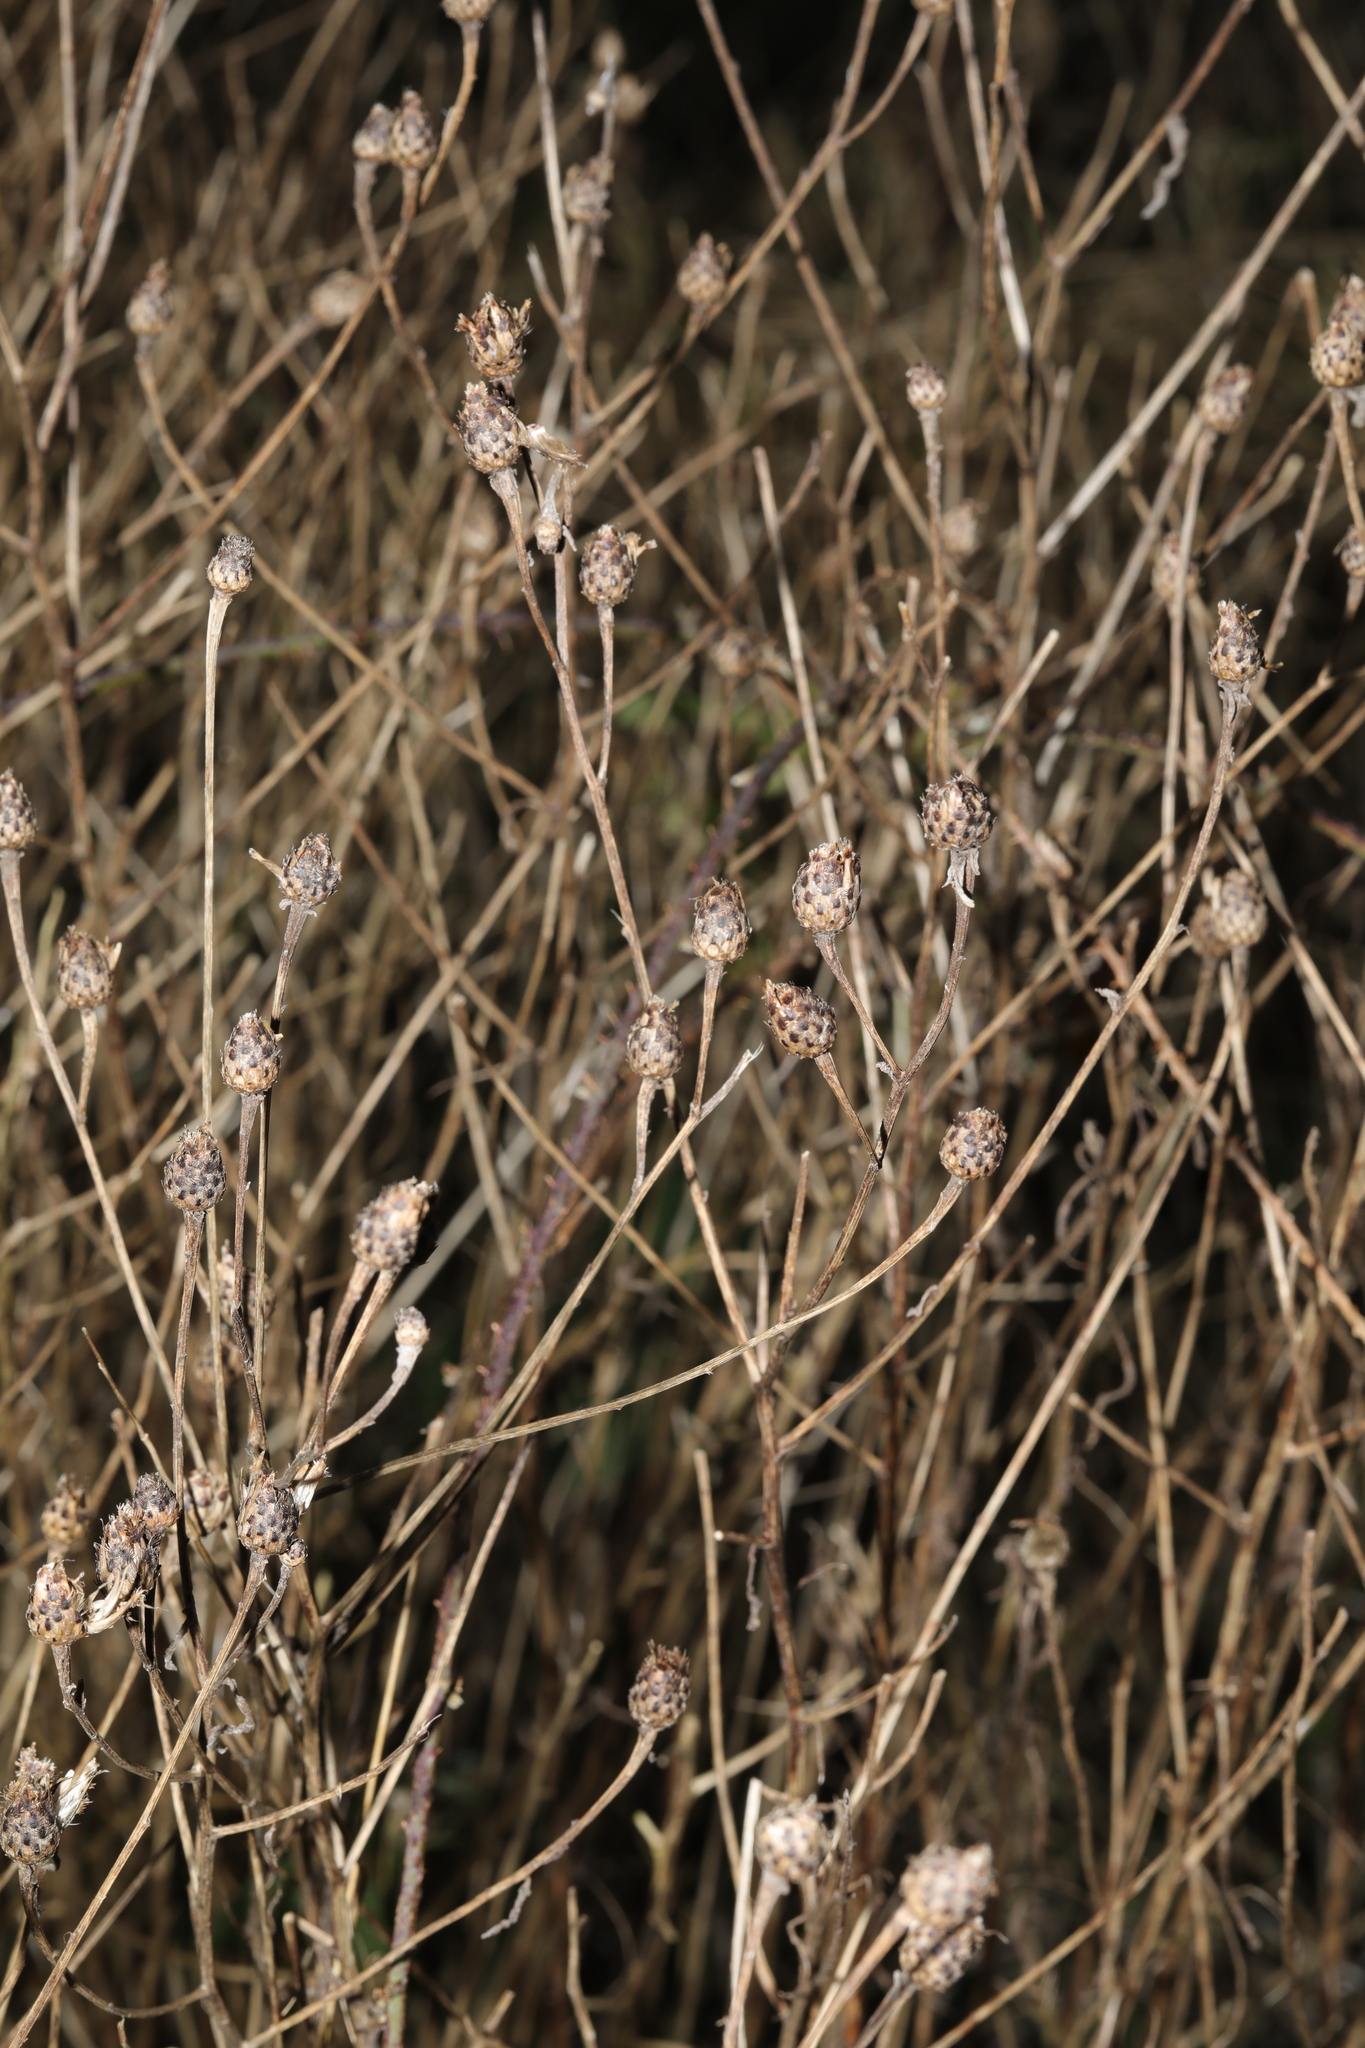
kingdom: Plantae
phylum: Tracheophyta
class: Magnoliopsida
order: Asterales
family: Asteraceae
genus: Centaurea
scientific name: Centaurea nigra
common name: Lesser knapweed
